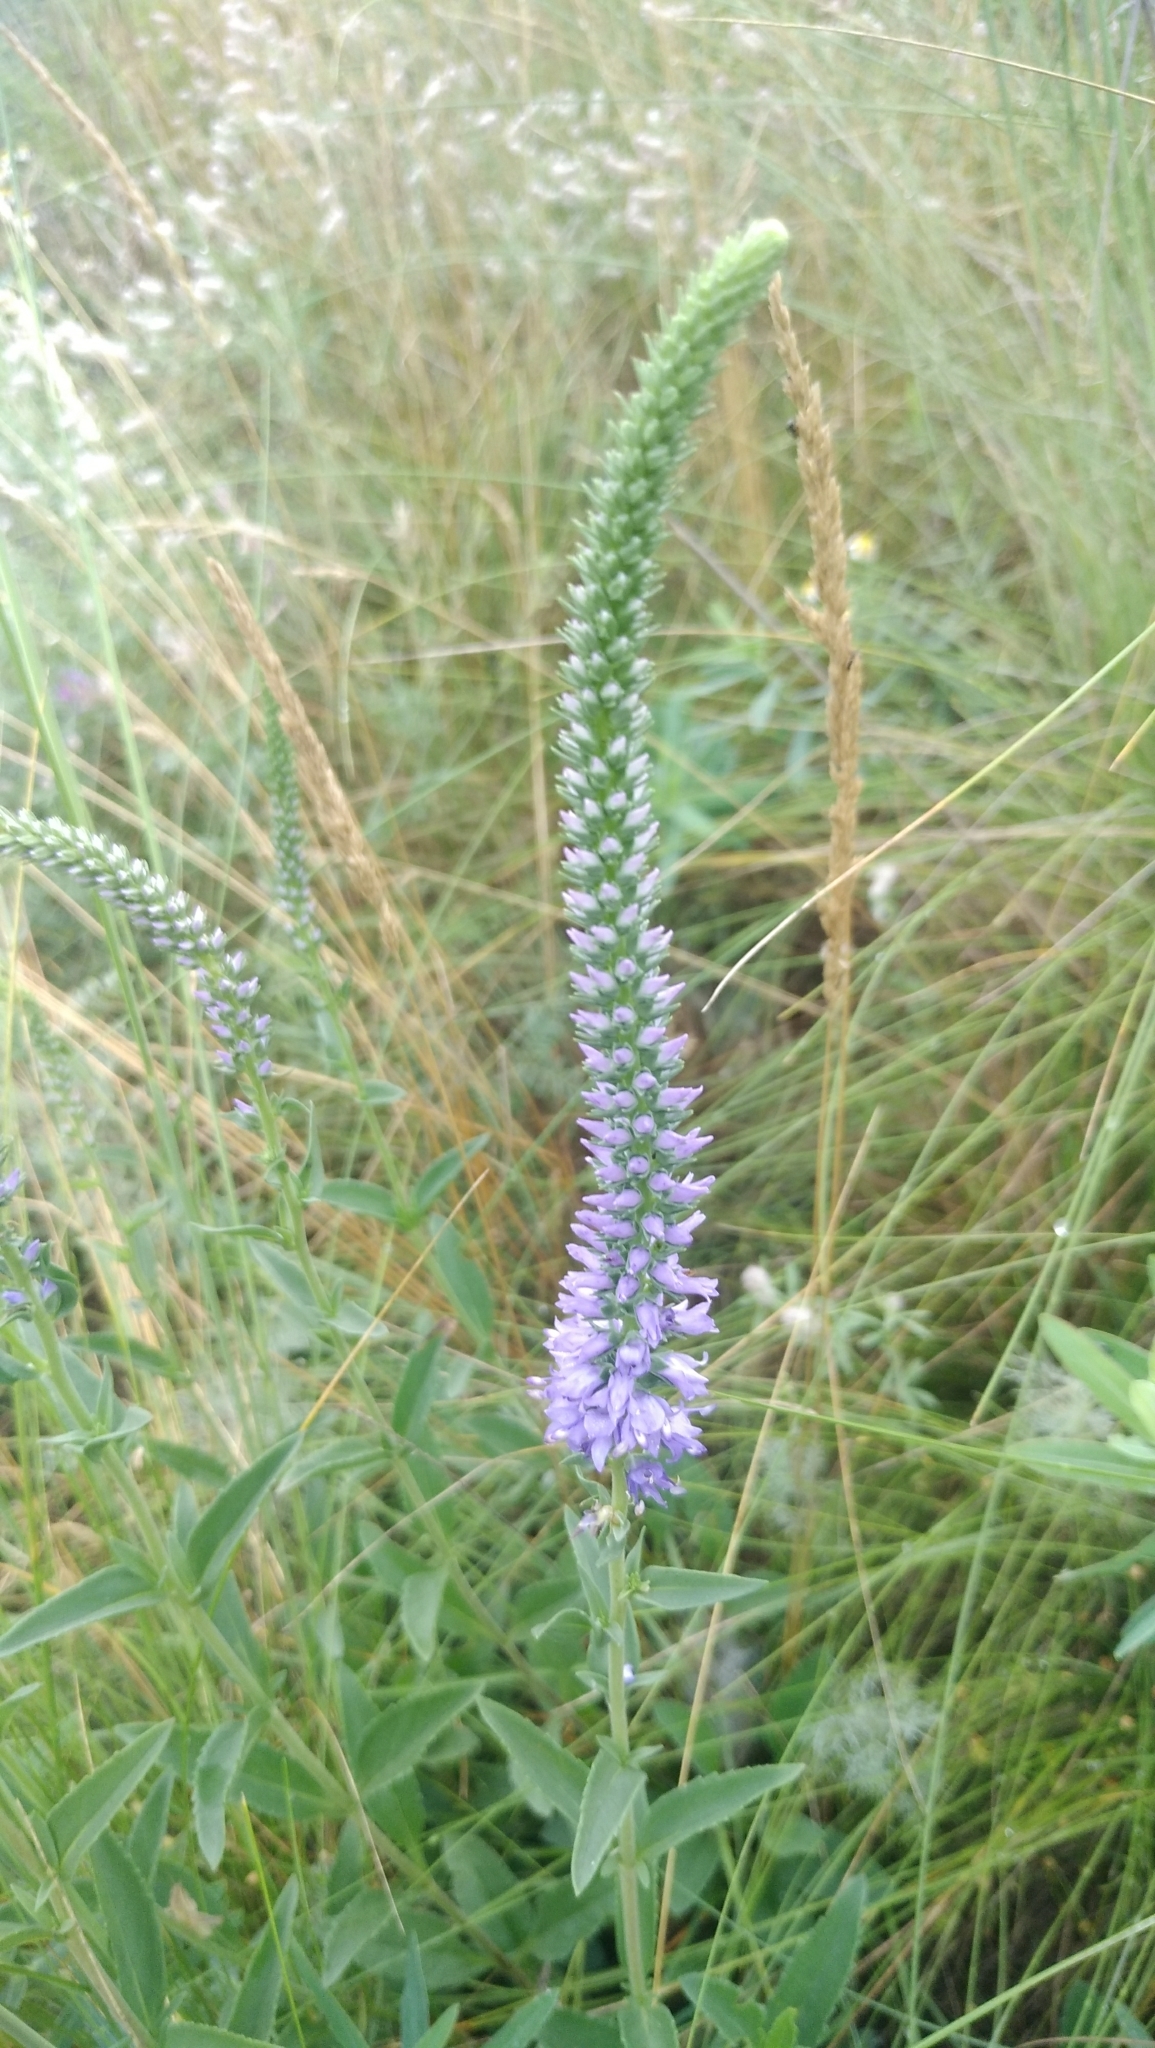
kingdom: Plantae
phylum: Tracheophyta
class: Magnoliopsida
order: Lamiales
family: Plantaginaceae
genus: Veronica
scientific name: Veronica spicata
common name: Spiked speedwell
